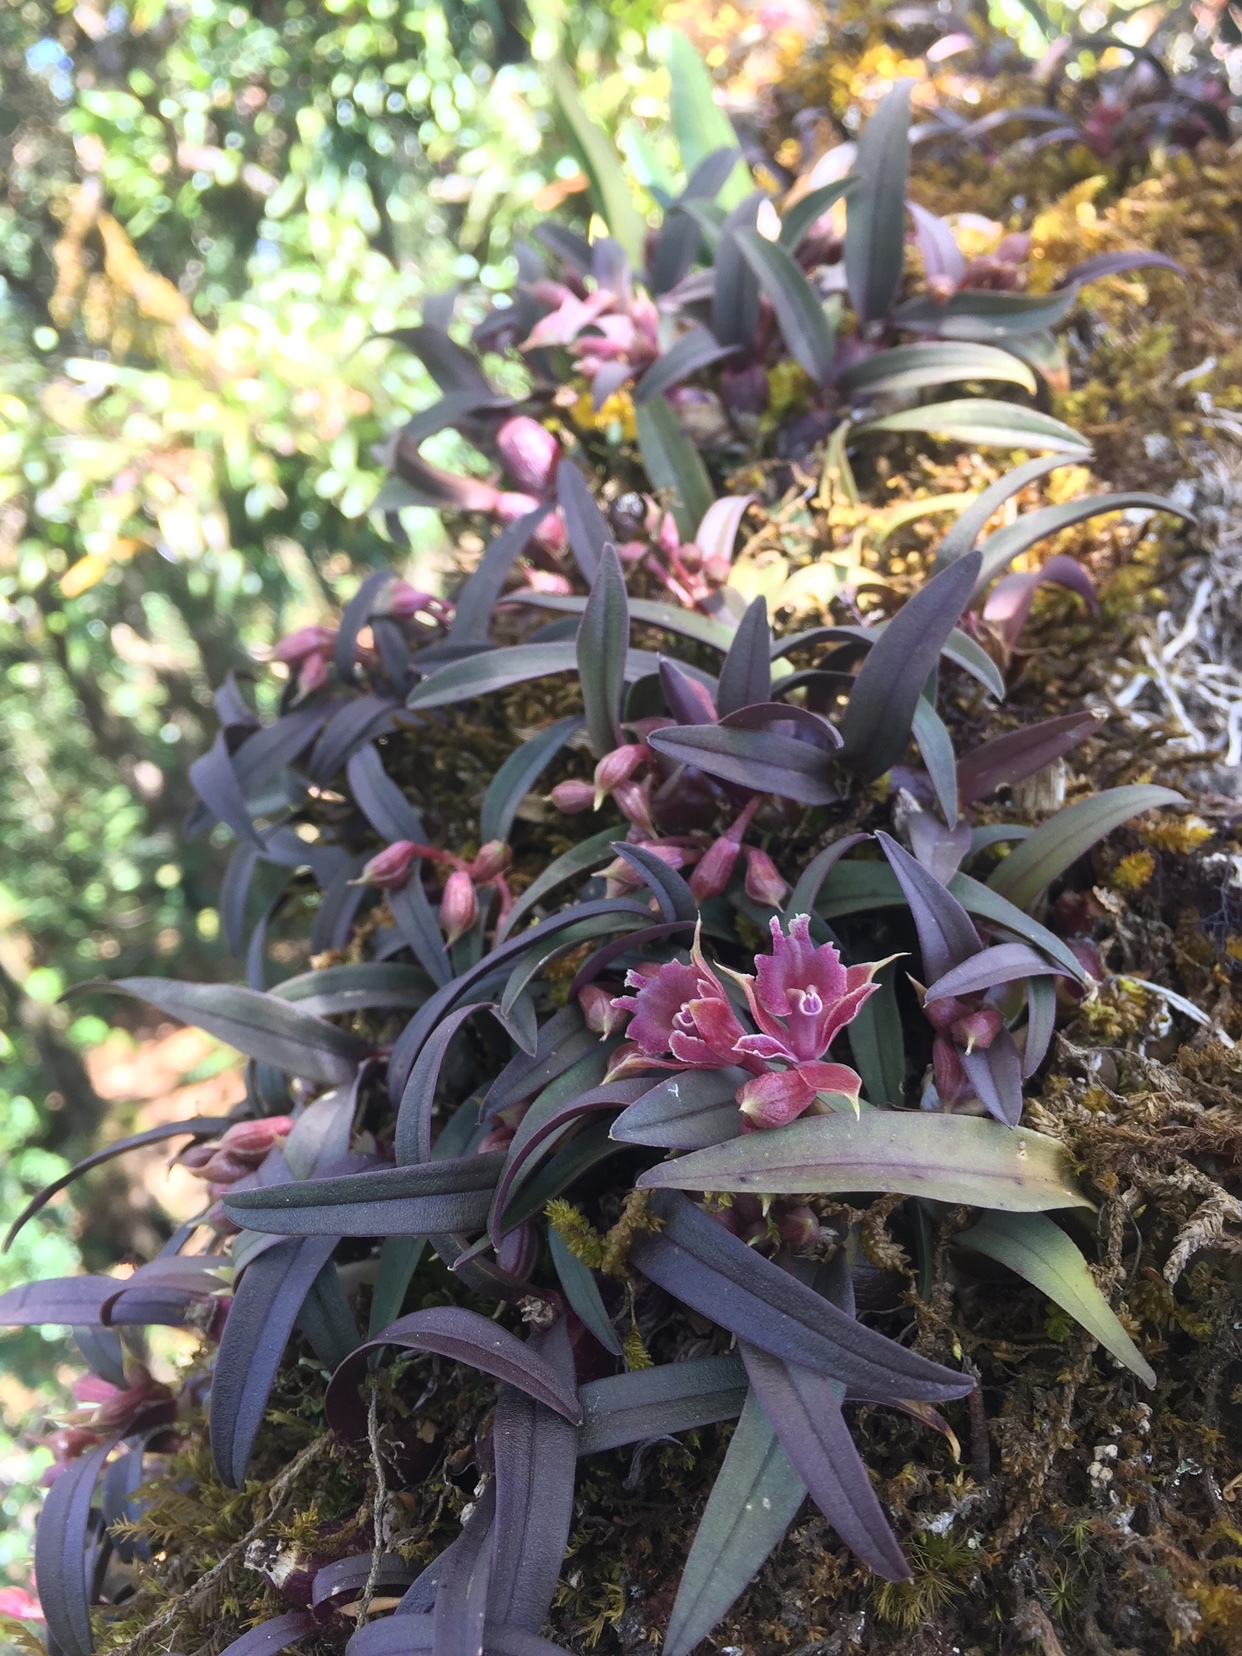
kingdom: Plantae
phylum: Tracheophyta
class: Liliopsida
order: Asparagales
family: Orchidaceae
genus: Epidendrum
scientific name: Epidendrum microcharis
